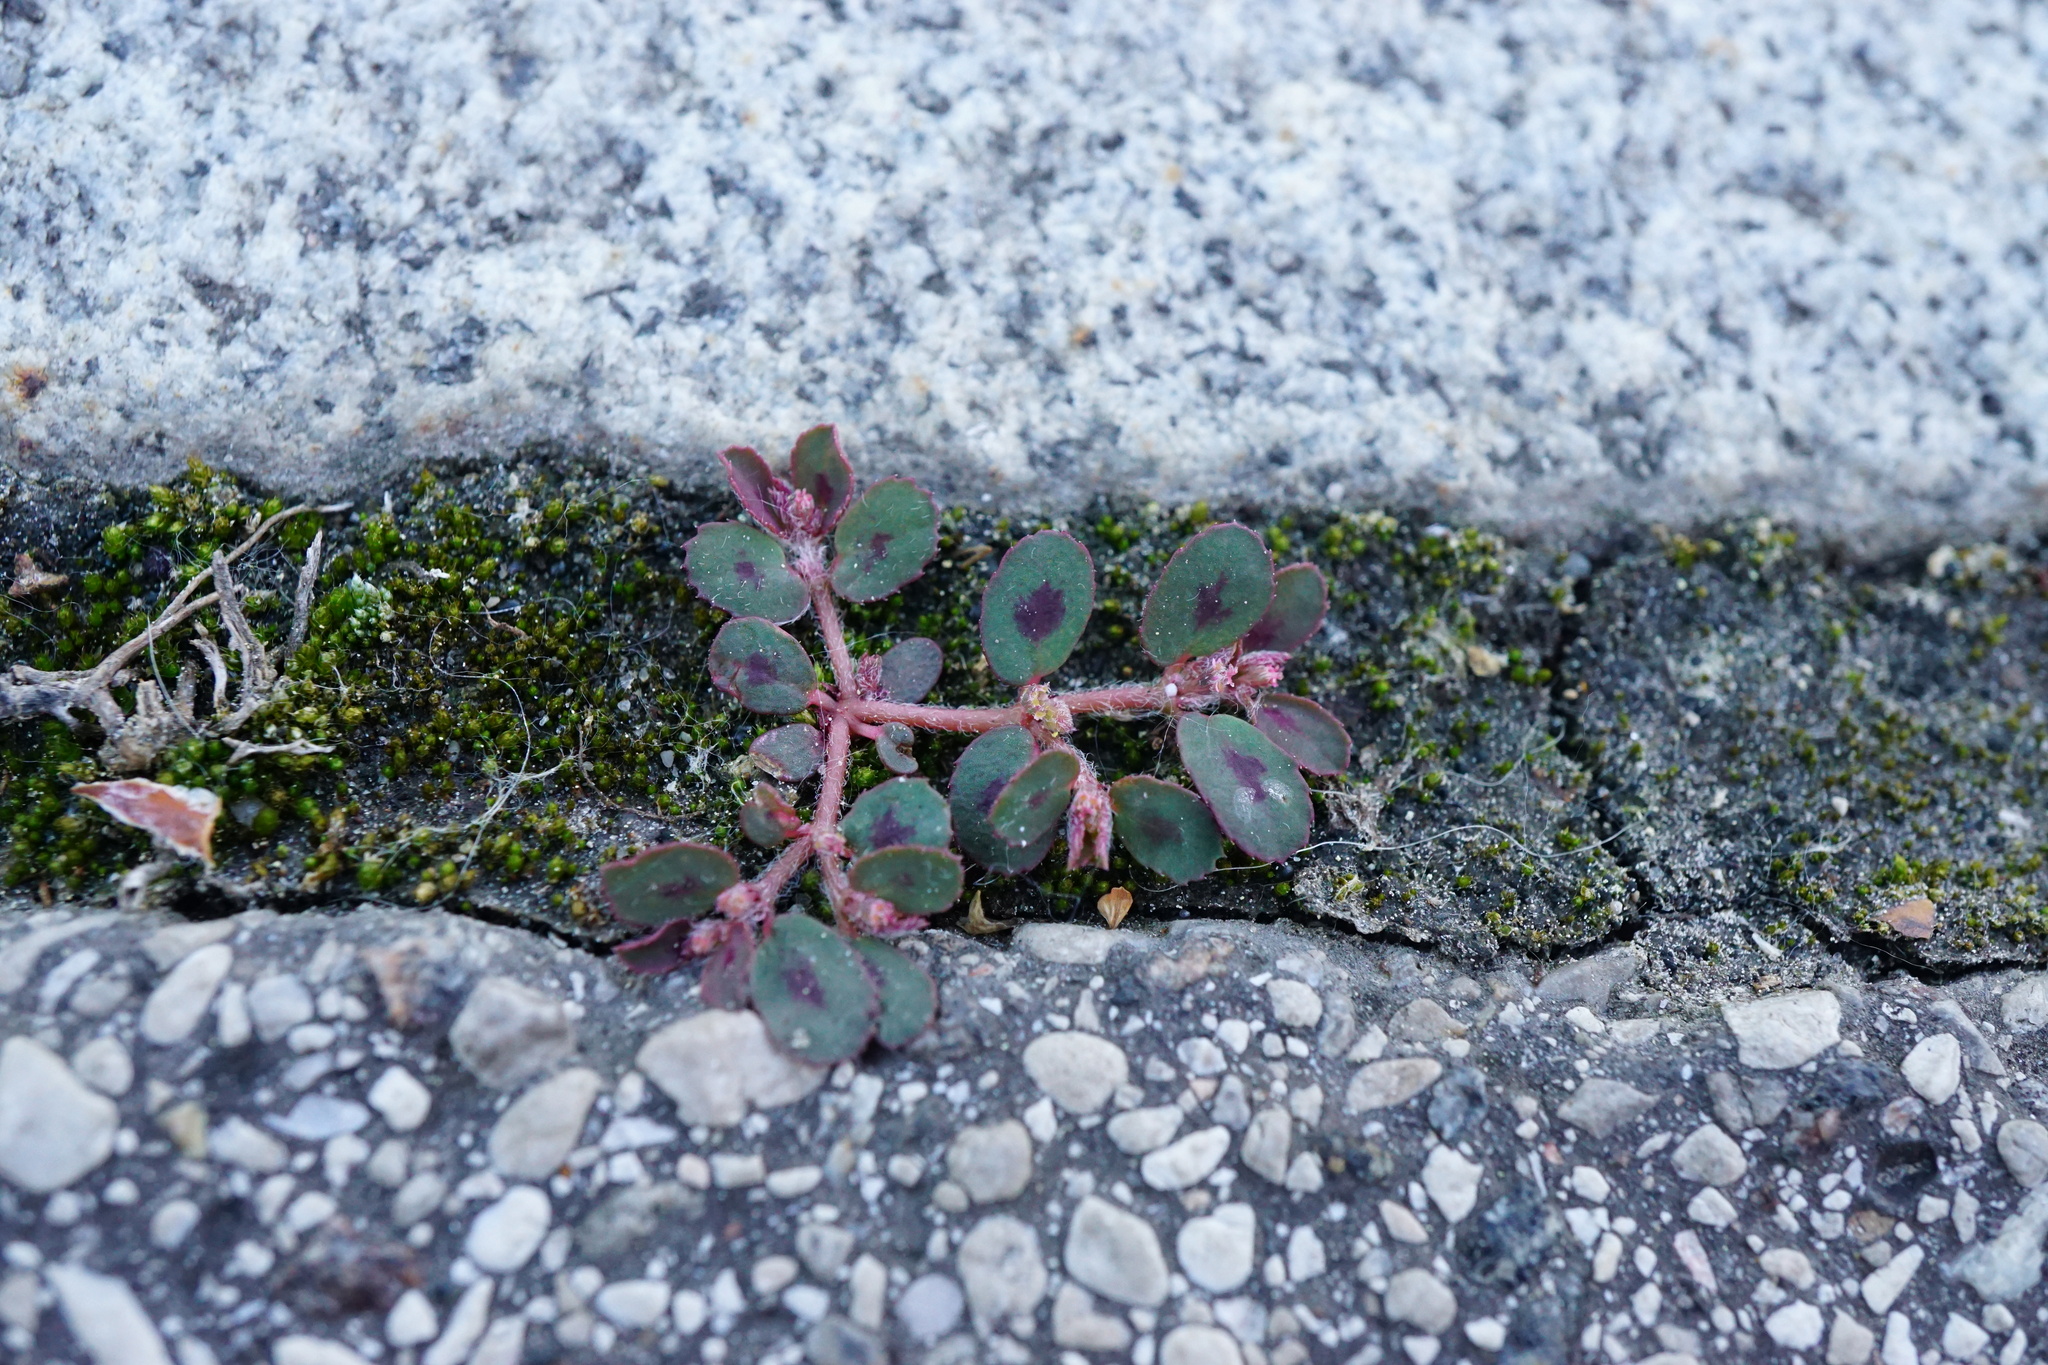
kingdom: Plantae
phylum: Tracheophyta
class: Magnoliopsida
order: Malpighiales
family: Euphorbiaceae
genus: Euphorbia
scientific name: Euphorbia maculata
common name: Spotted spurge
